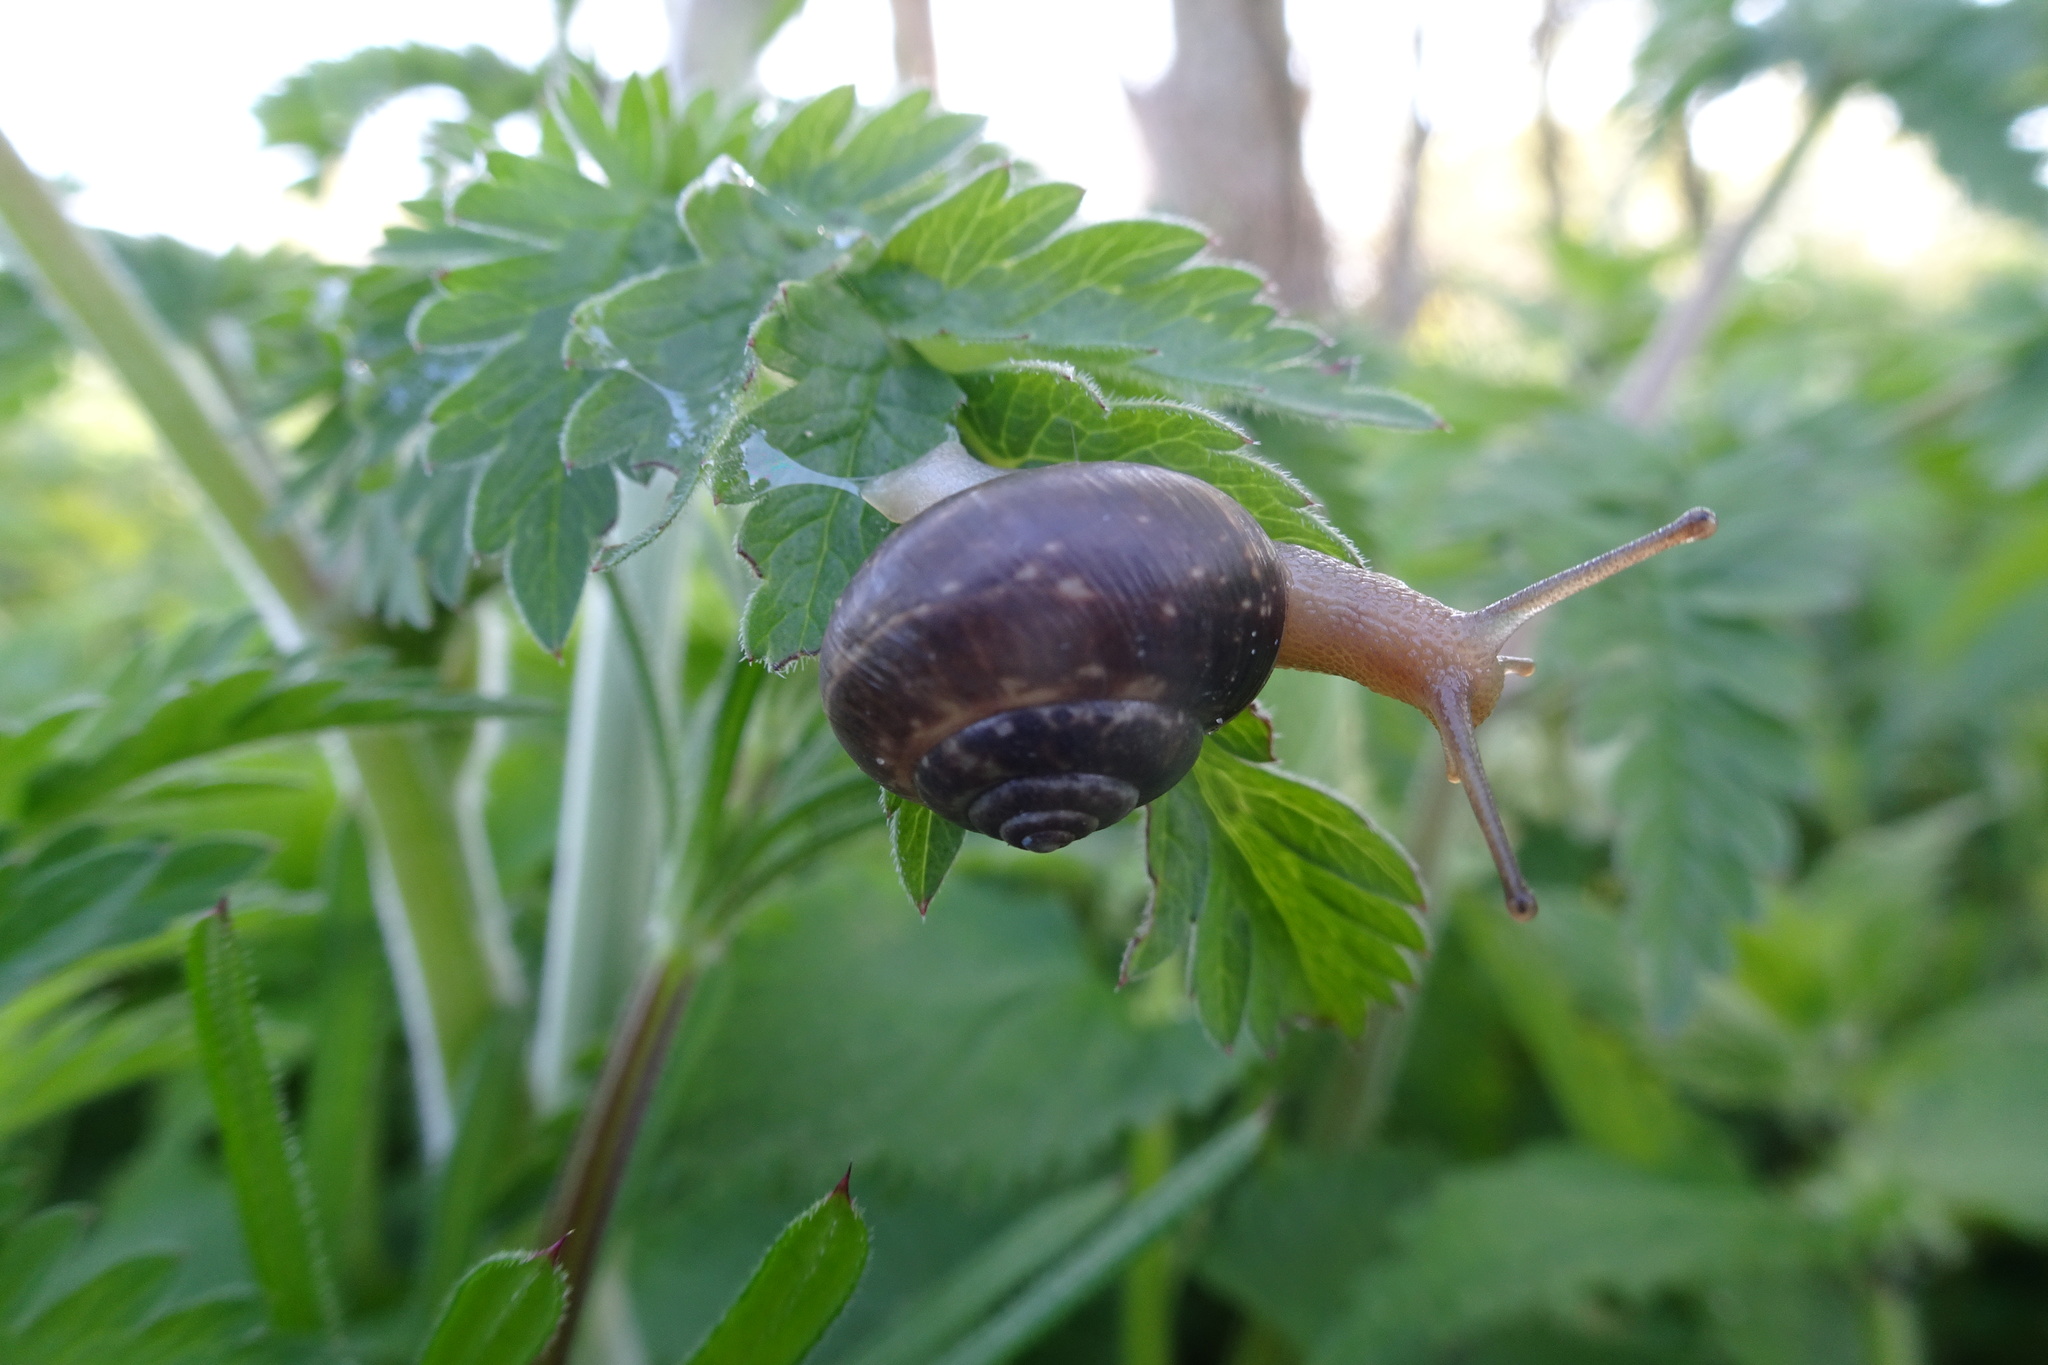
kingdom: Animalia
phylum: Mollusca
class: Gastropoda
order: Stylommatophora
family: Hygromiidae
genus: Monacha
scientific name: Monacha cantiana
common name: Kentish snail
